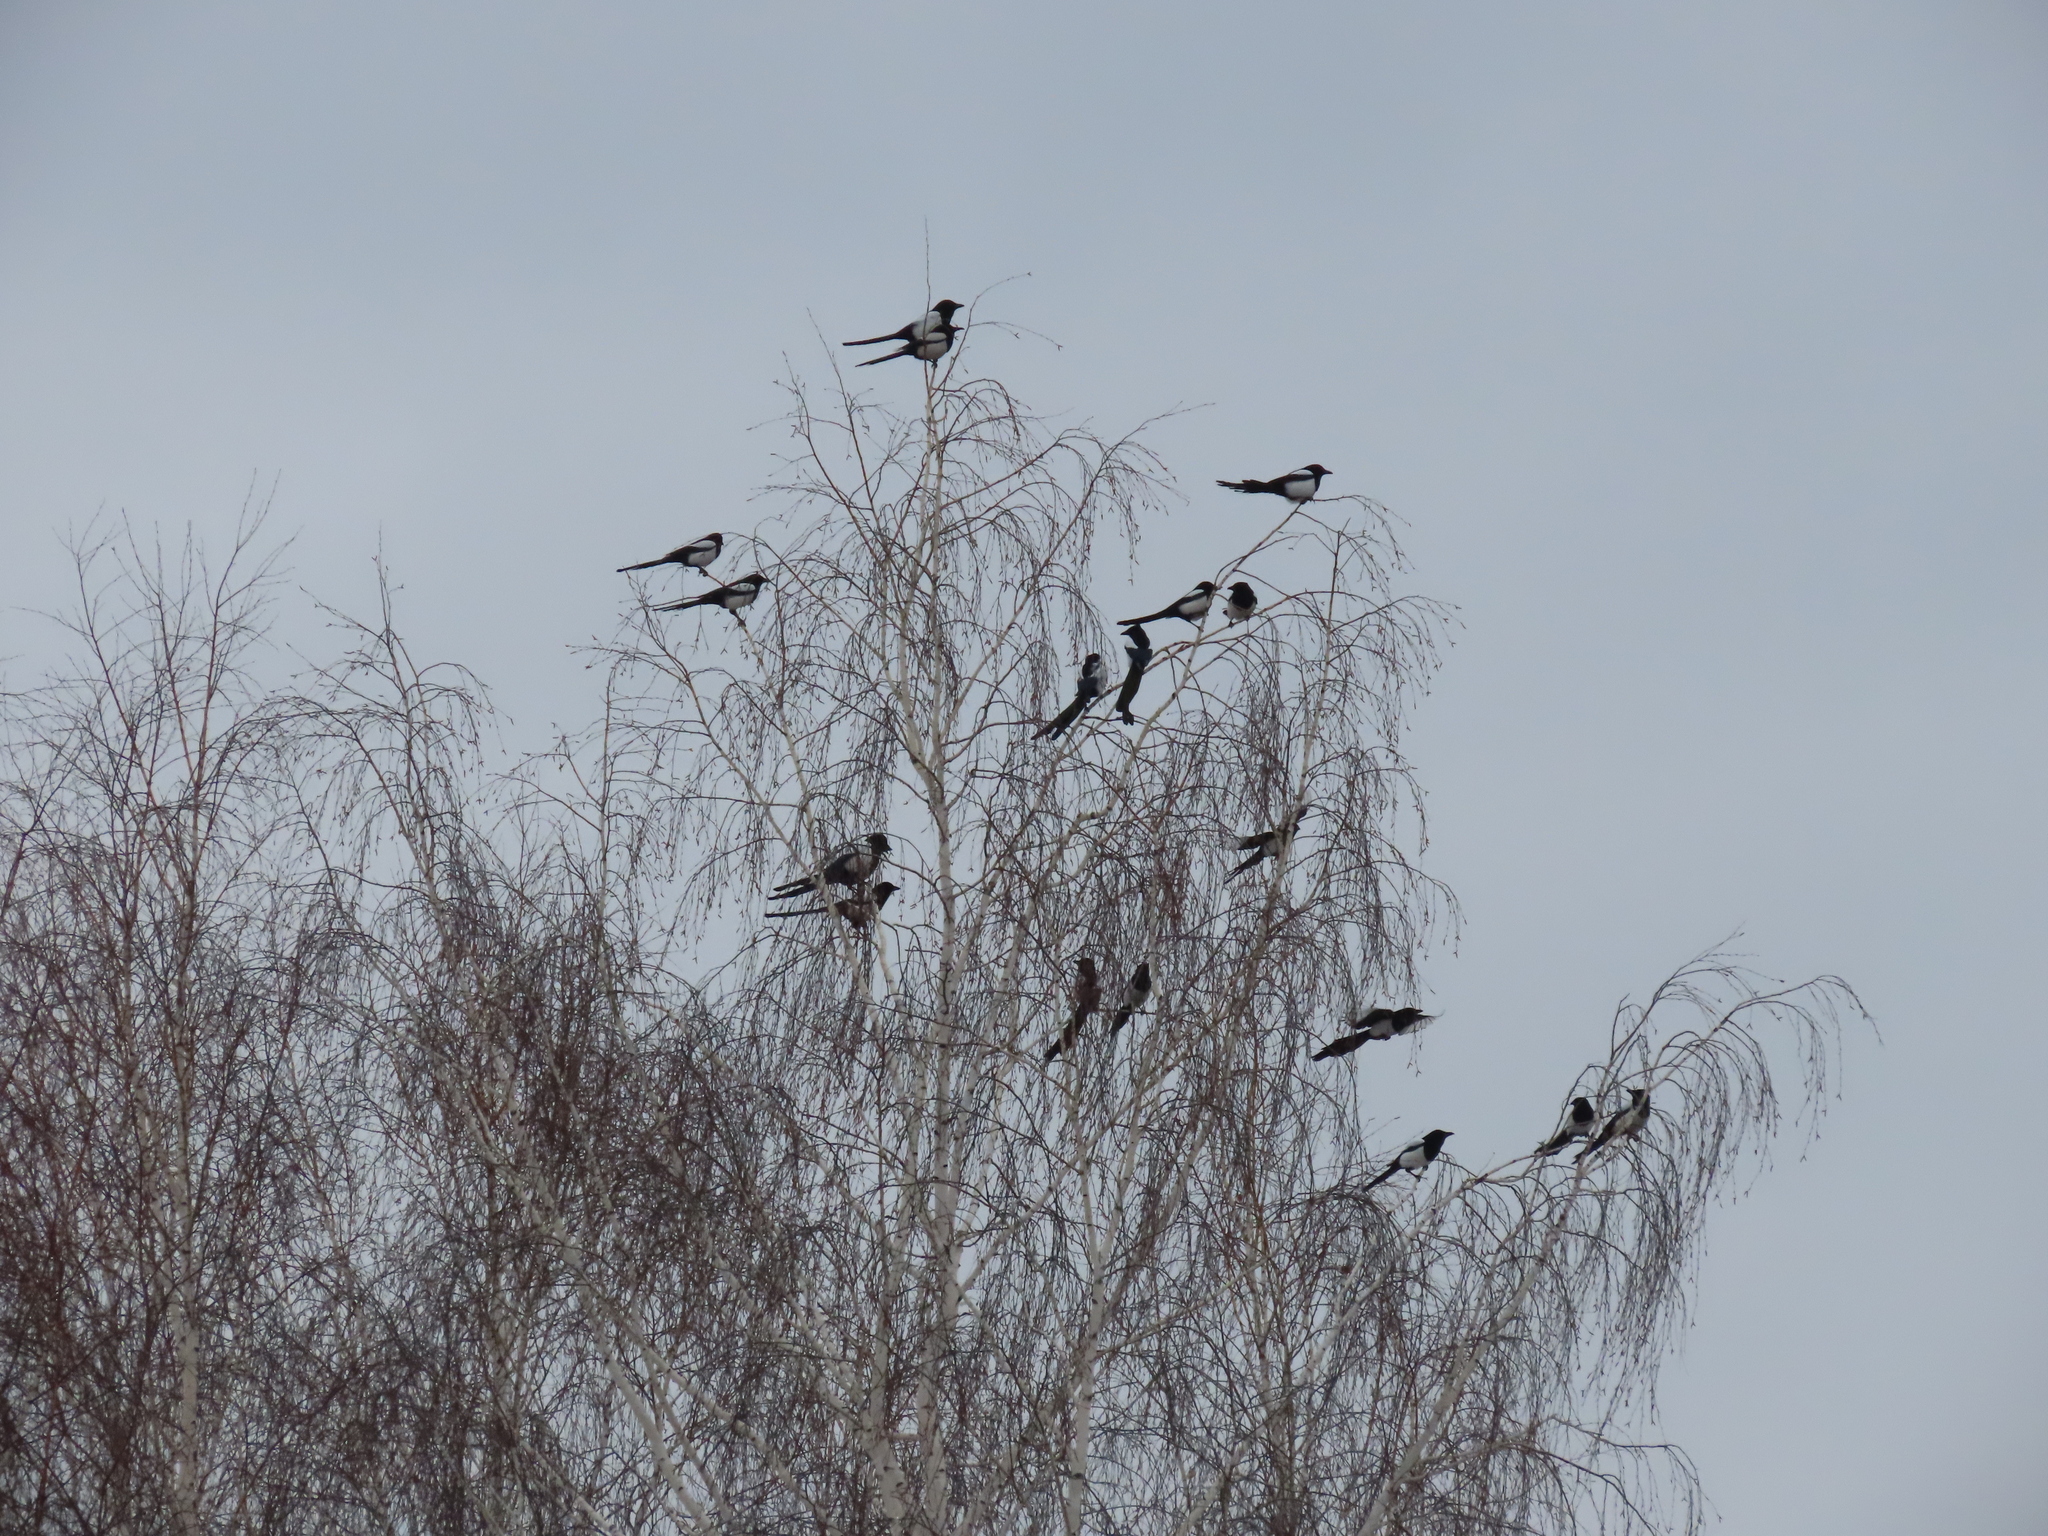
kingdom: Animalia
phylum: Chordata
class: Aves
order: Passeriformes
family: Corvidae
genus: Pica
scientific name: Pica pica
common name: Eurasian magpie
